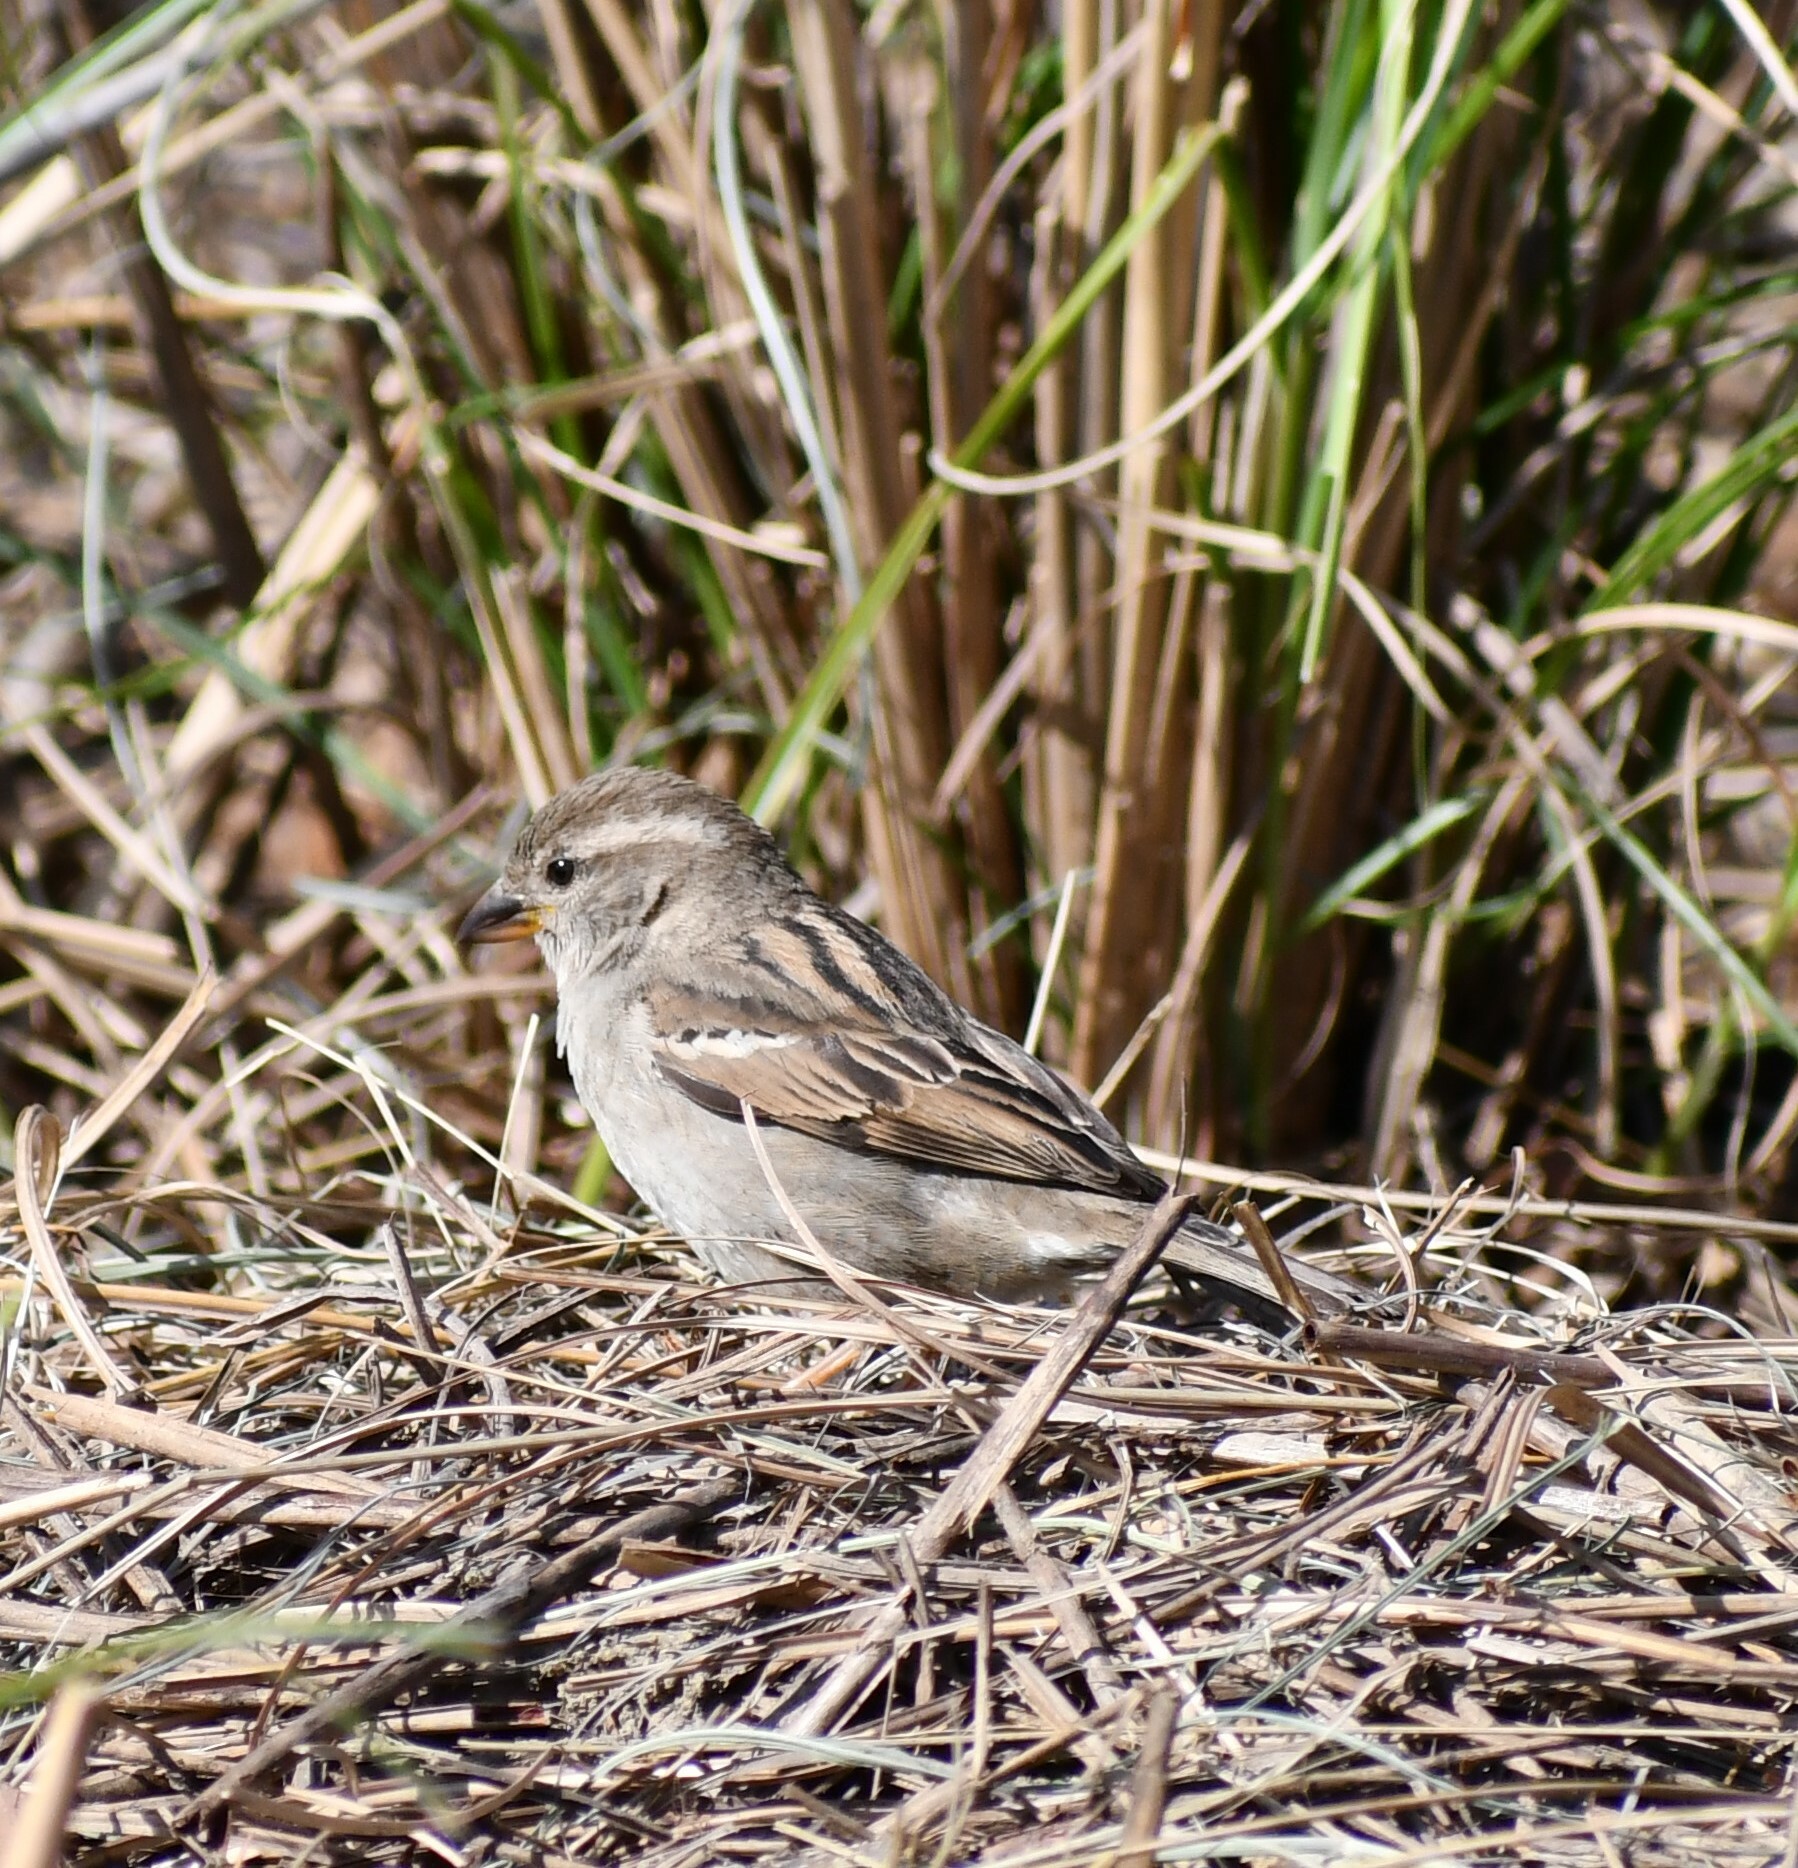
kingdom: Animalia
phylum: Chordata
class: Aves
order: Passeriformes
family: Passeridae
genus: Passer
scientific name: Passer domesticus
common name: House sparrow
